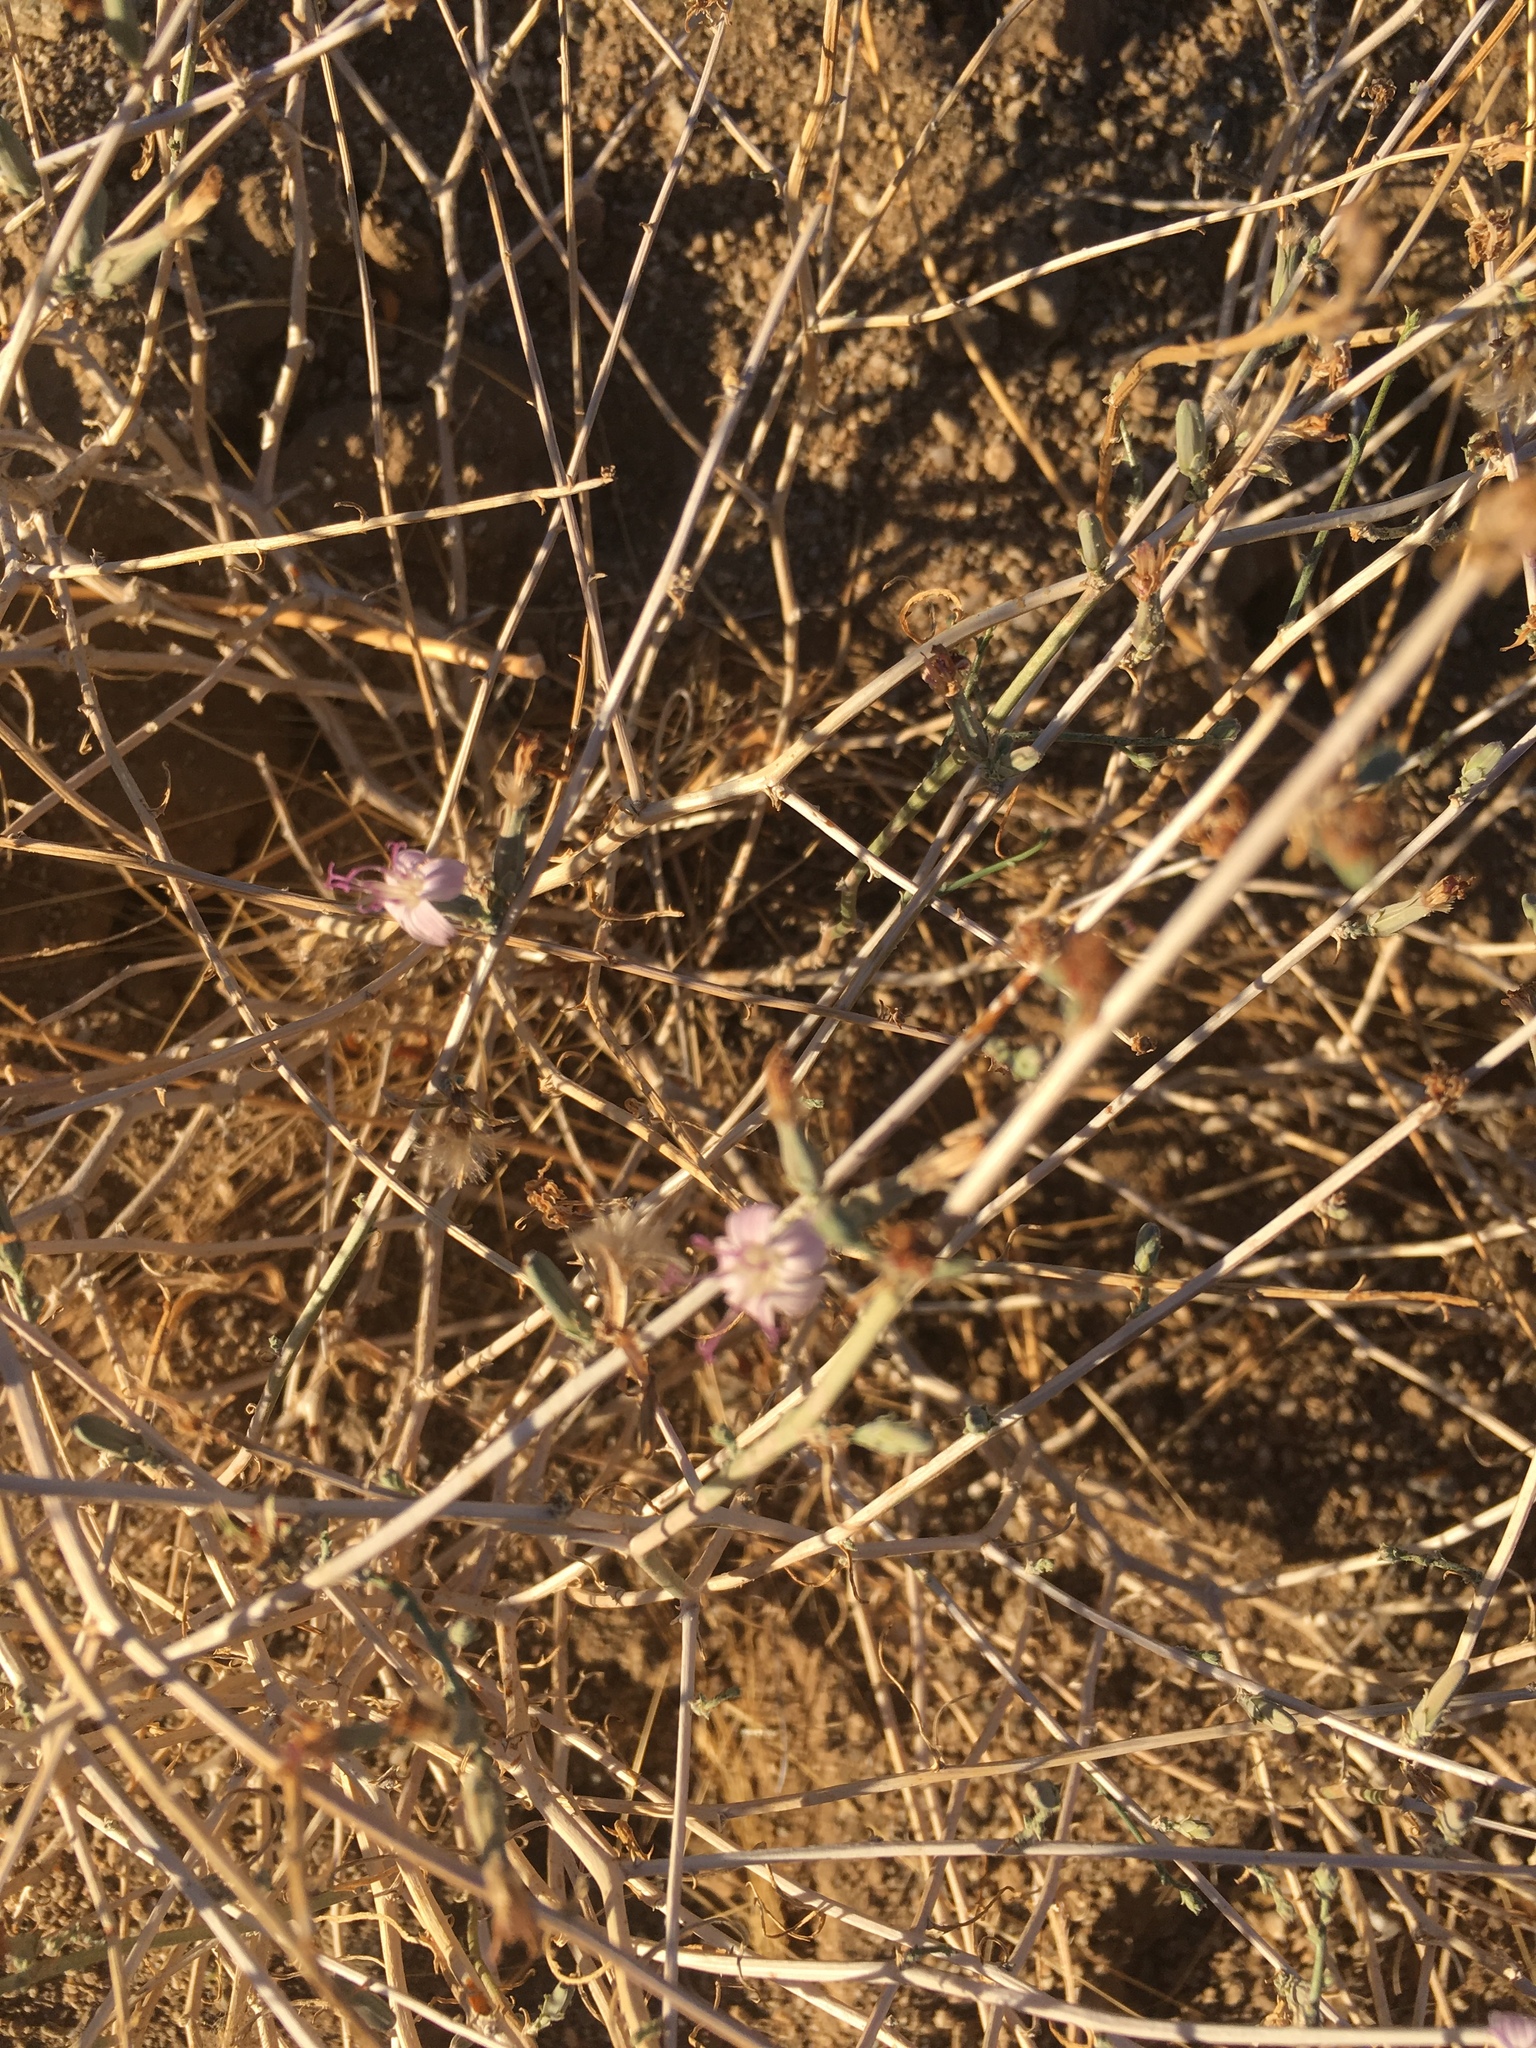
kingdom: Plantae
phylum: Tracheophyta
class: Magnoliopsida
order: Asterales
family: Asteraceae
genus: Stephanomeria
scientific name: Stephanomeria pauciflora
